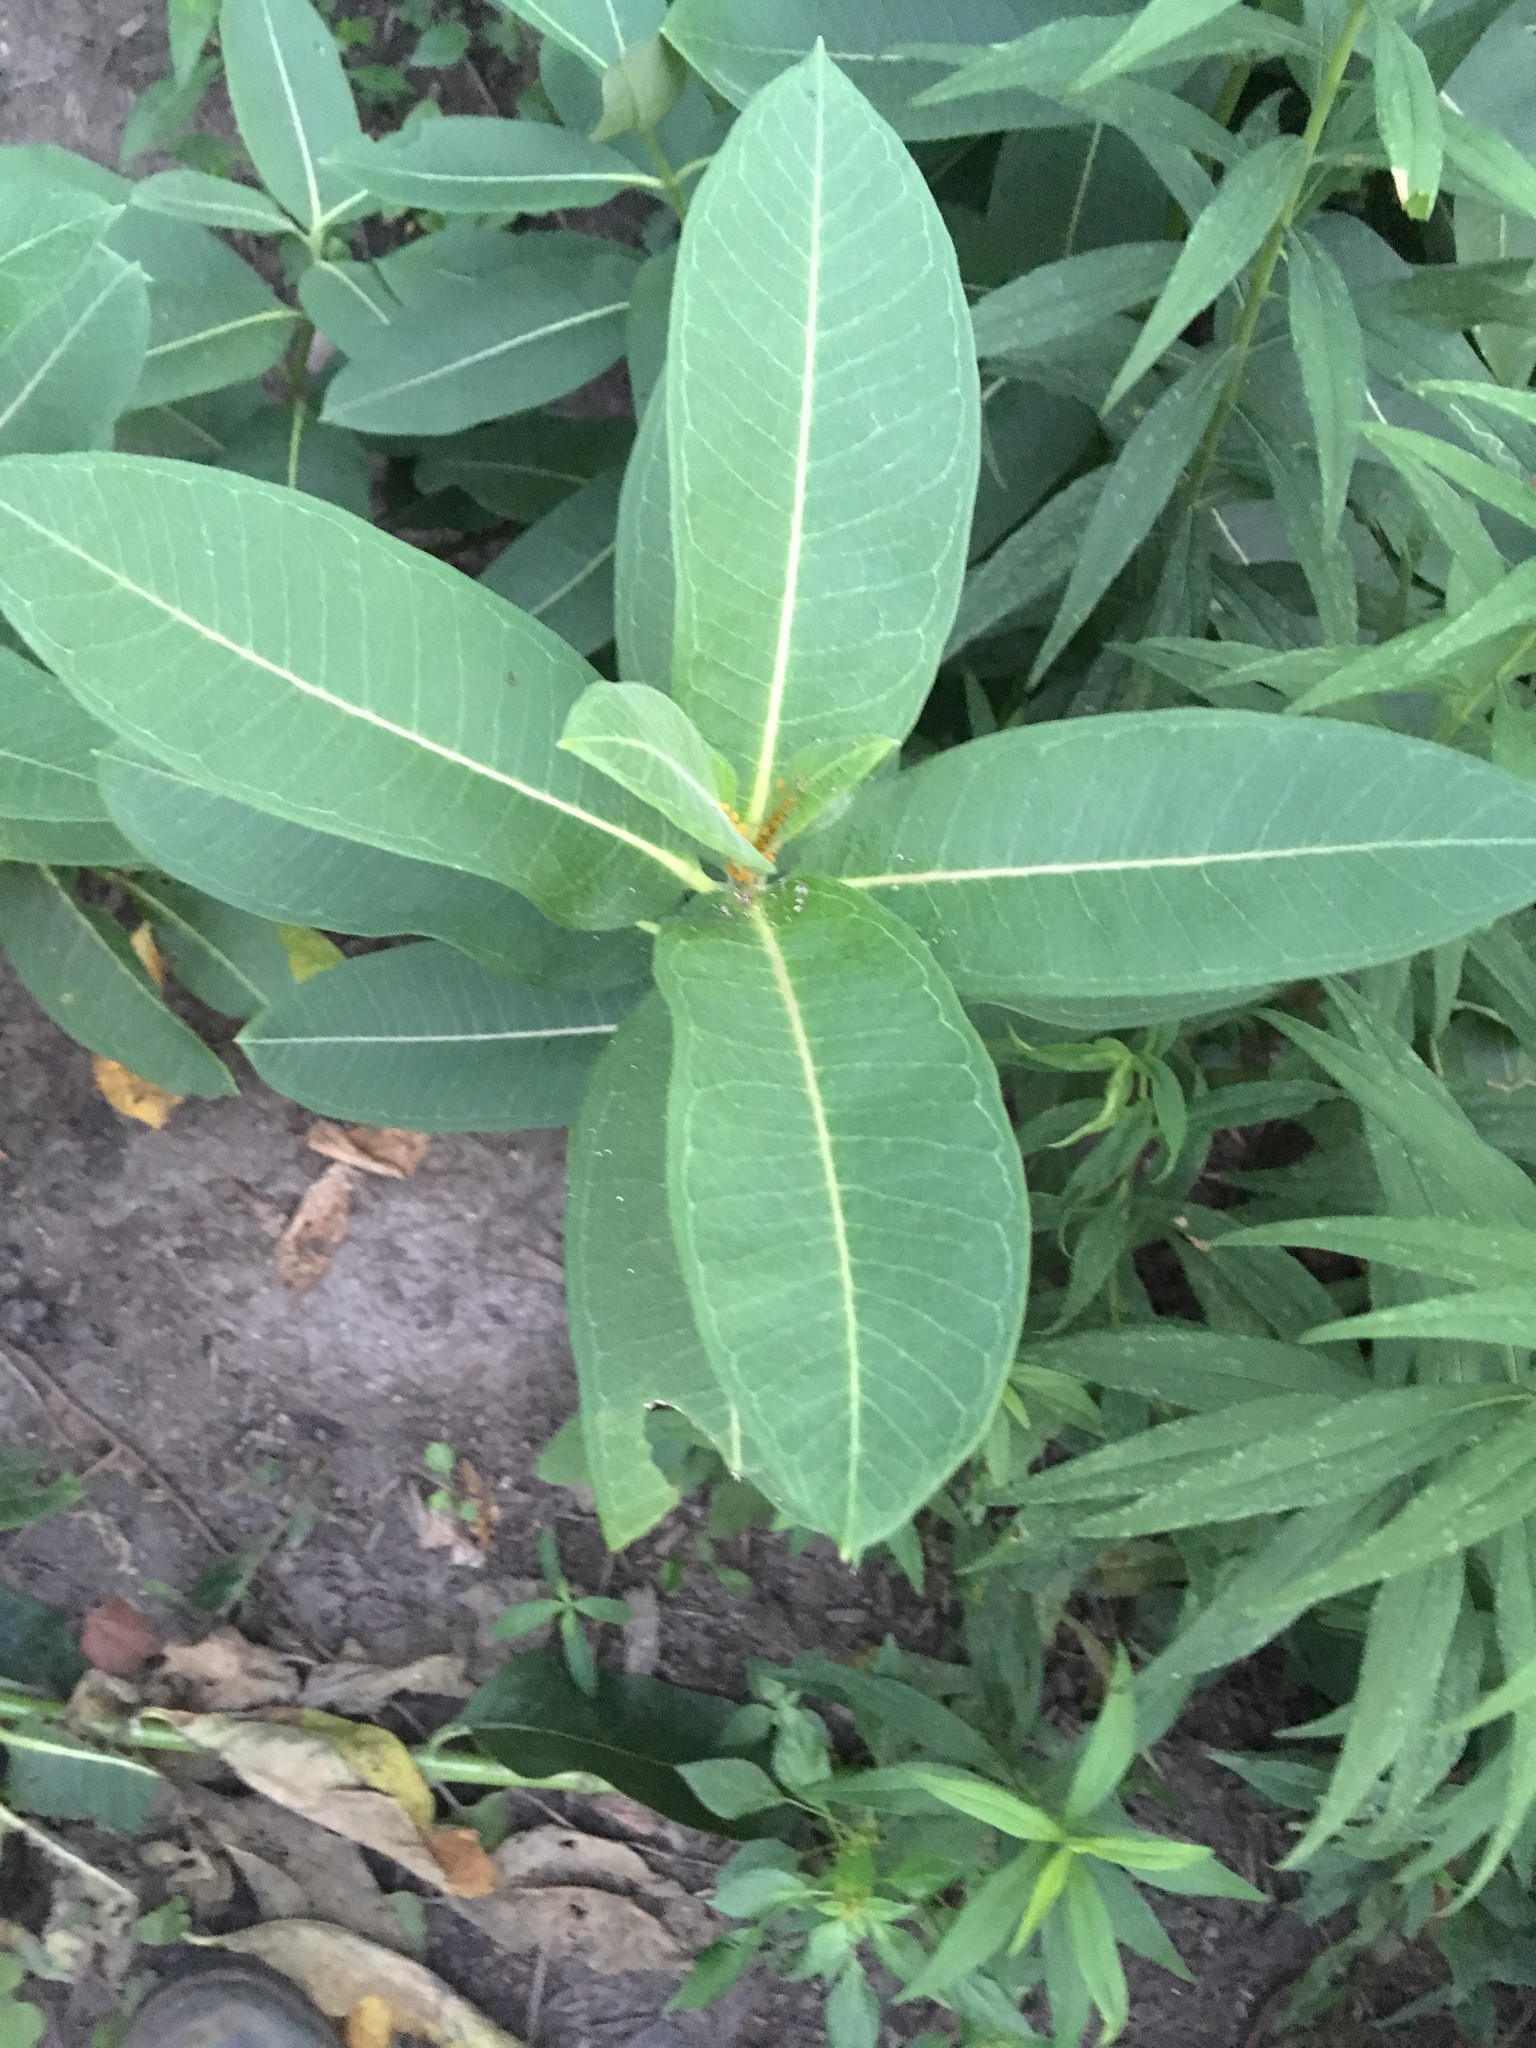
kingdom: Plantae
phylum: Tracheophyta
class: Magnoliopsida
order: Gentianales
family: Apocynaceae
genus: Asclepias
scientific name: Asclepias syriaca
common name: Common milkweed
